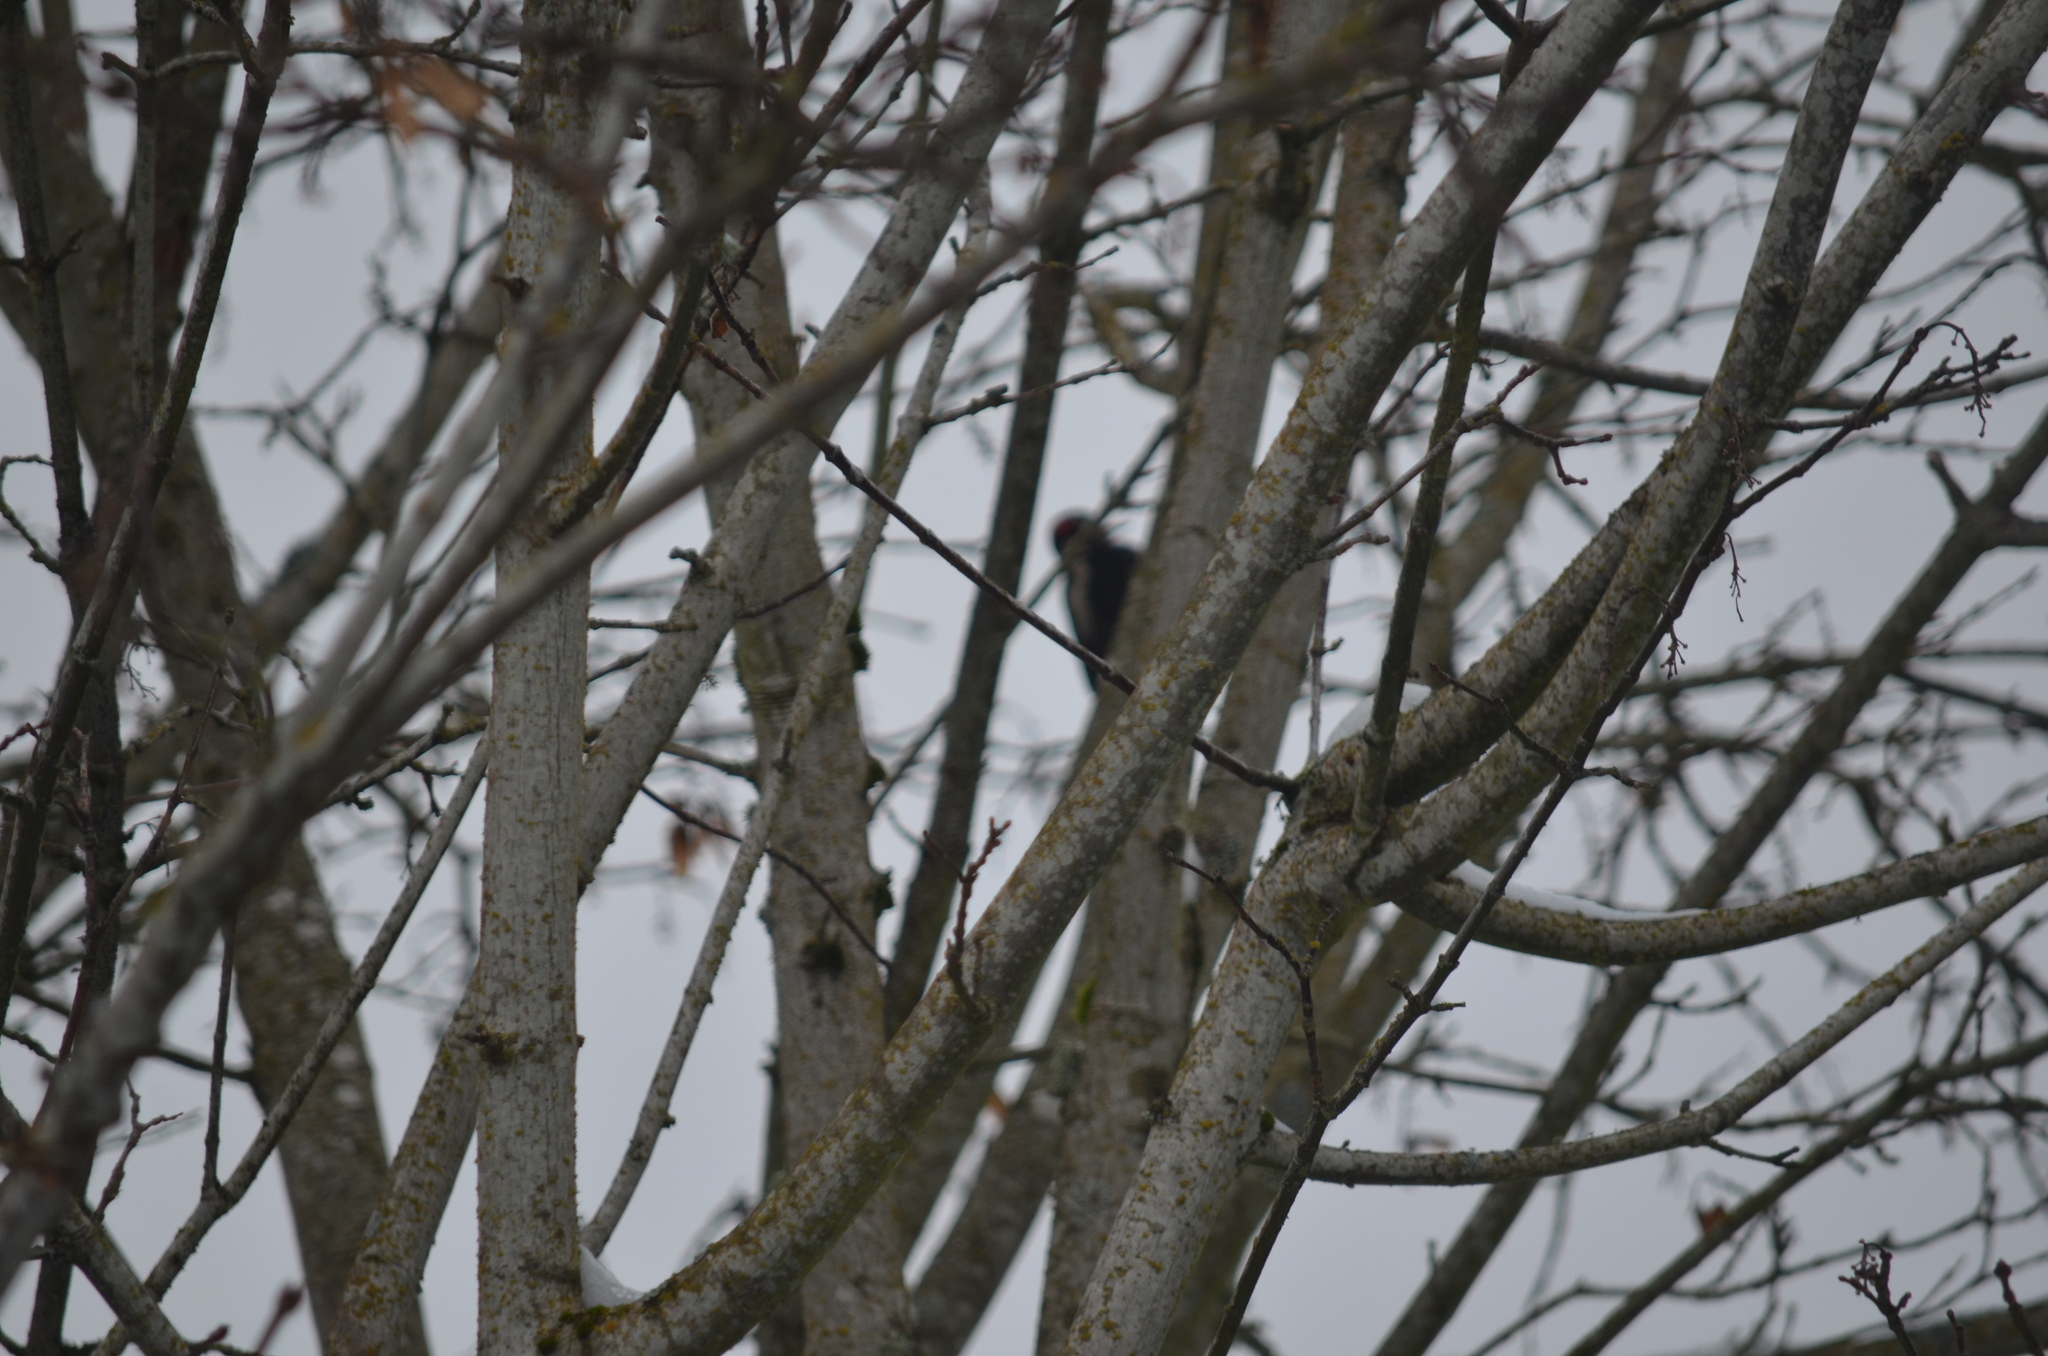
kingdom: Animalia
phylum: Chordata
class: Aves
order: Piciformes
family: Picidae
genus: Leuconotopicus
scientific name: Leuconotopicus villosus
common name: Hairy woodpecker
